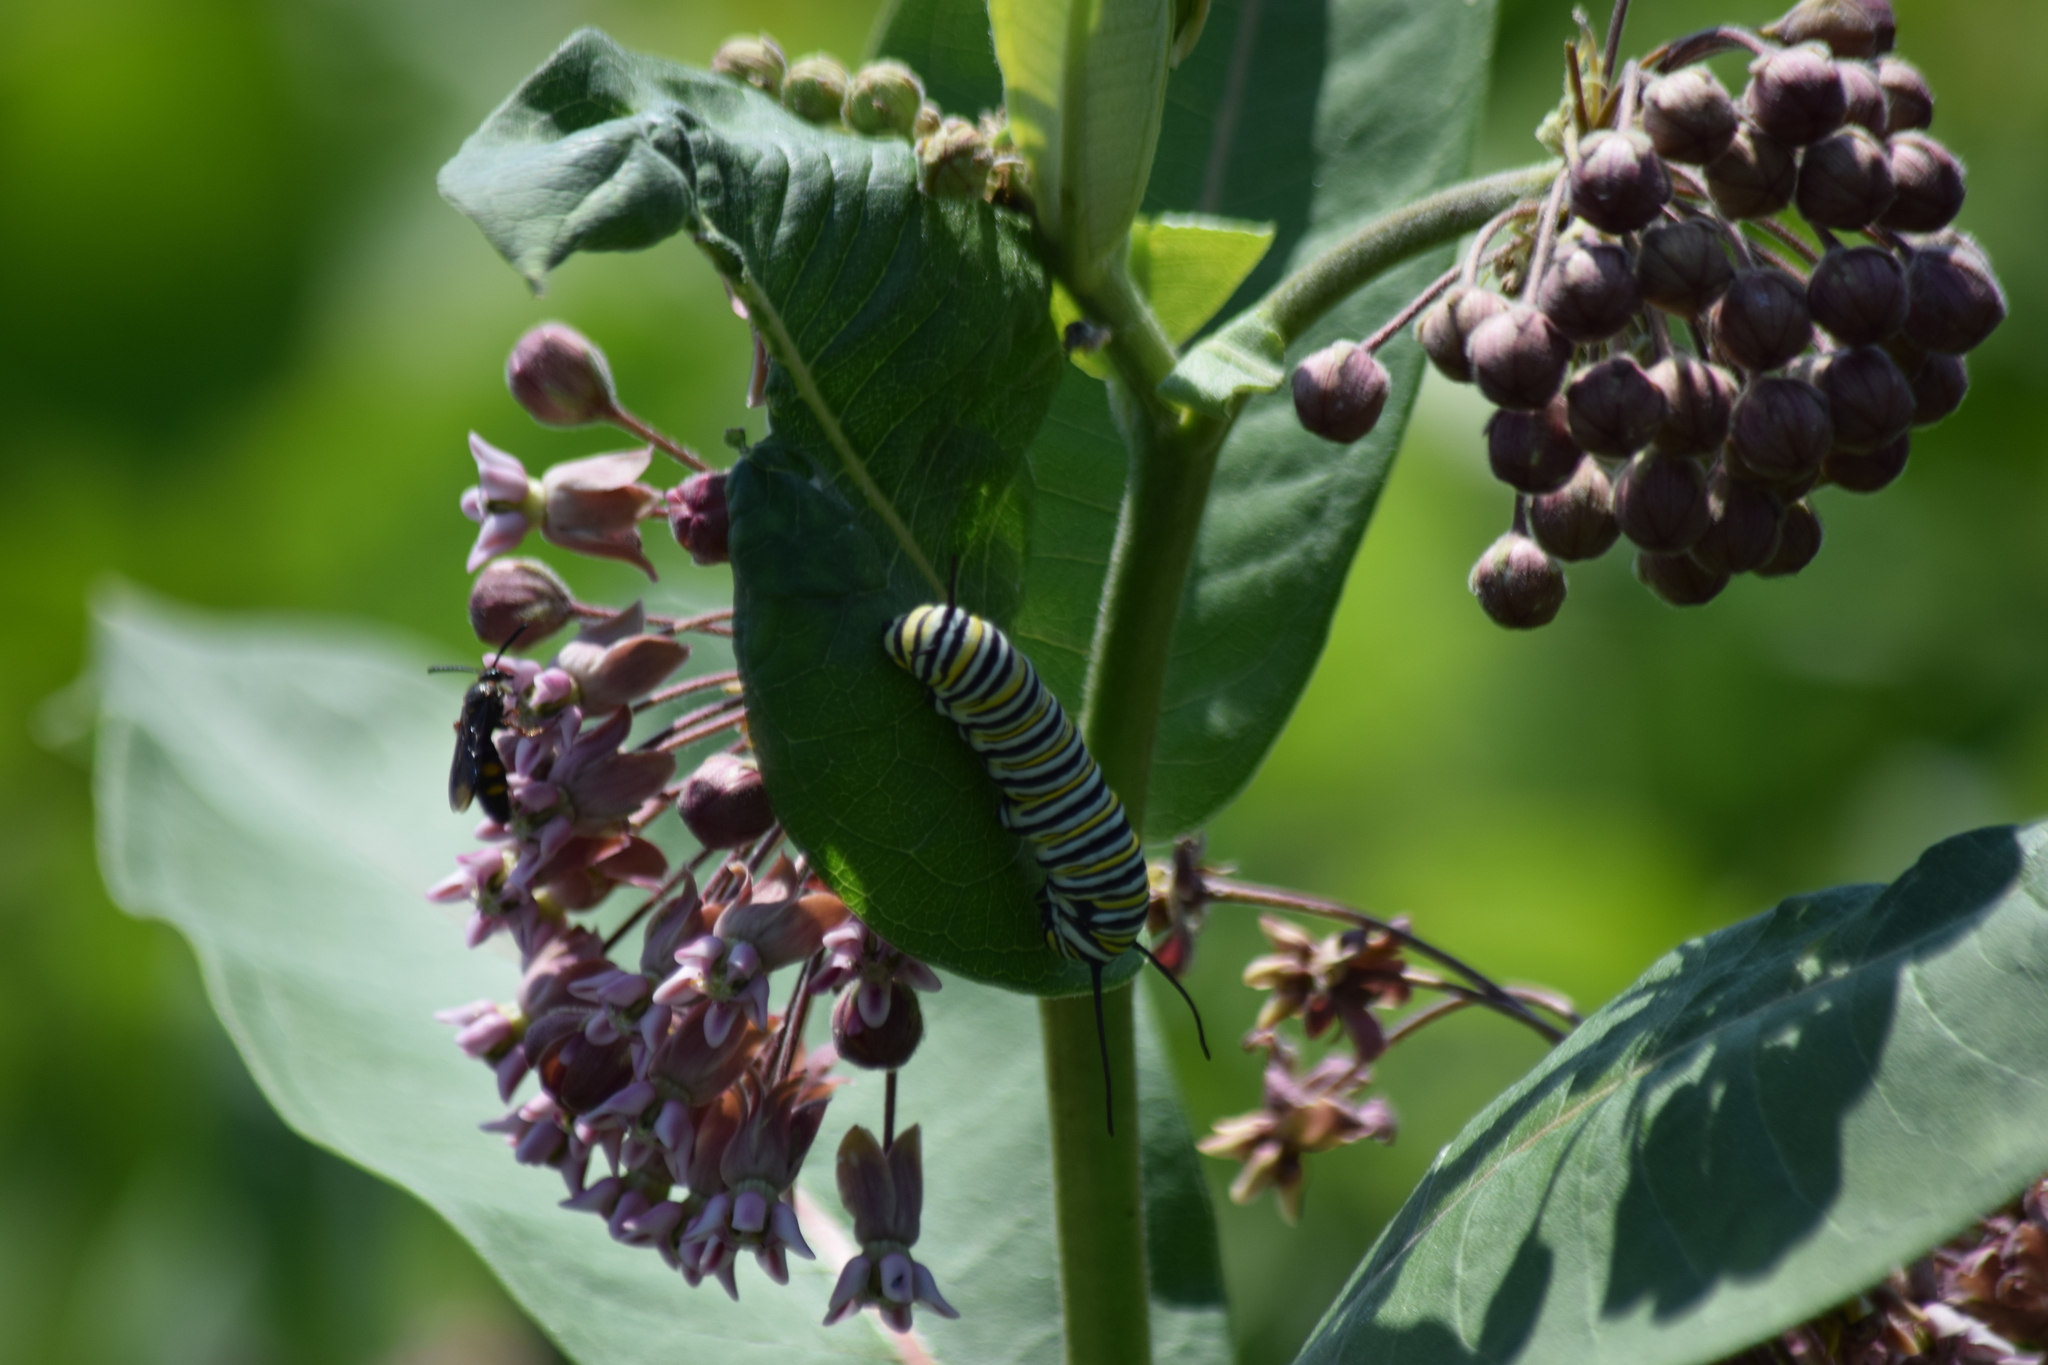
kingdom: Animalia
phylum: Arthropoda
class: Insecta
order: Lepidoptera
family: Nymphalidae
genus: Danaus
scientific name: Danaus plexippus
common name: Monarch
